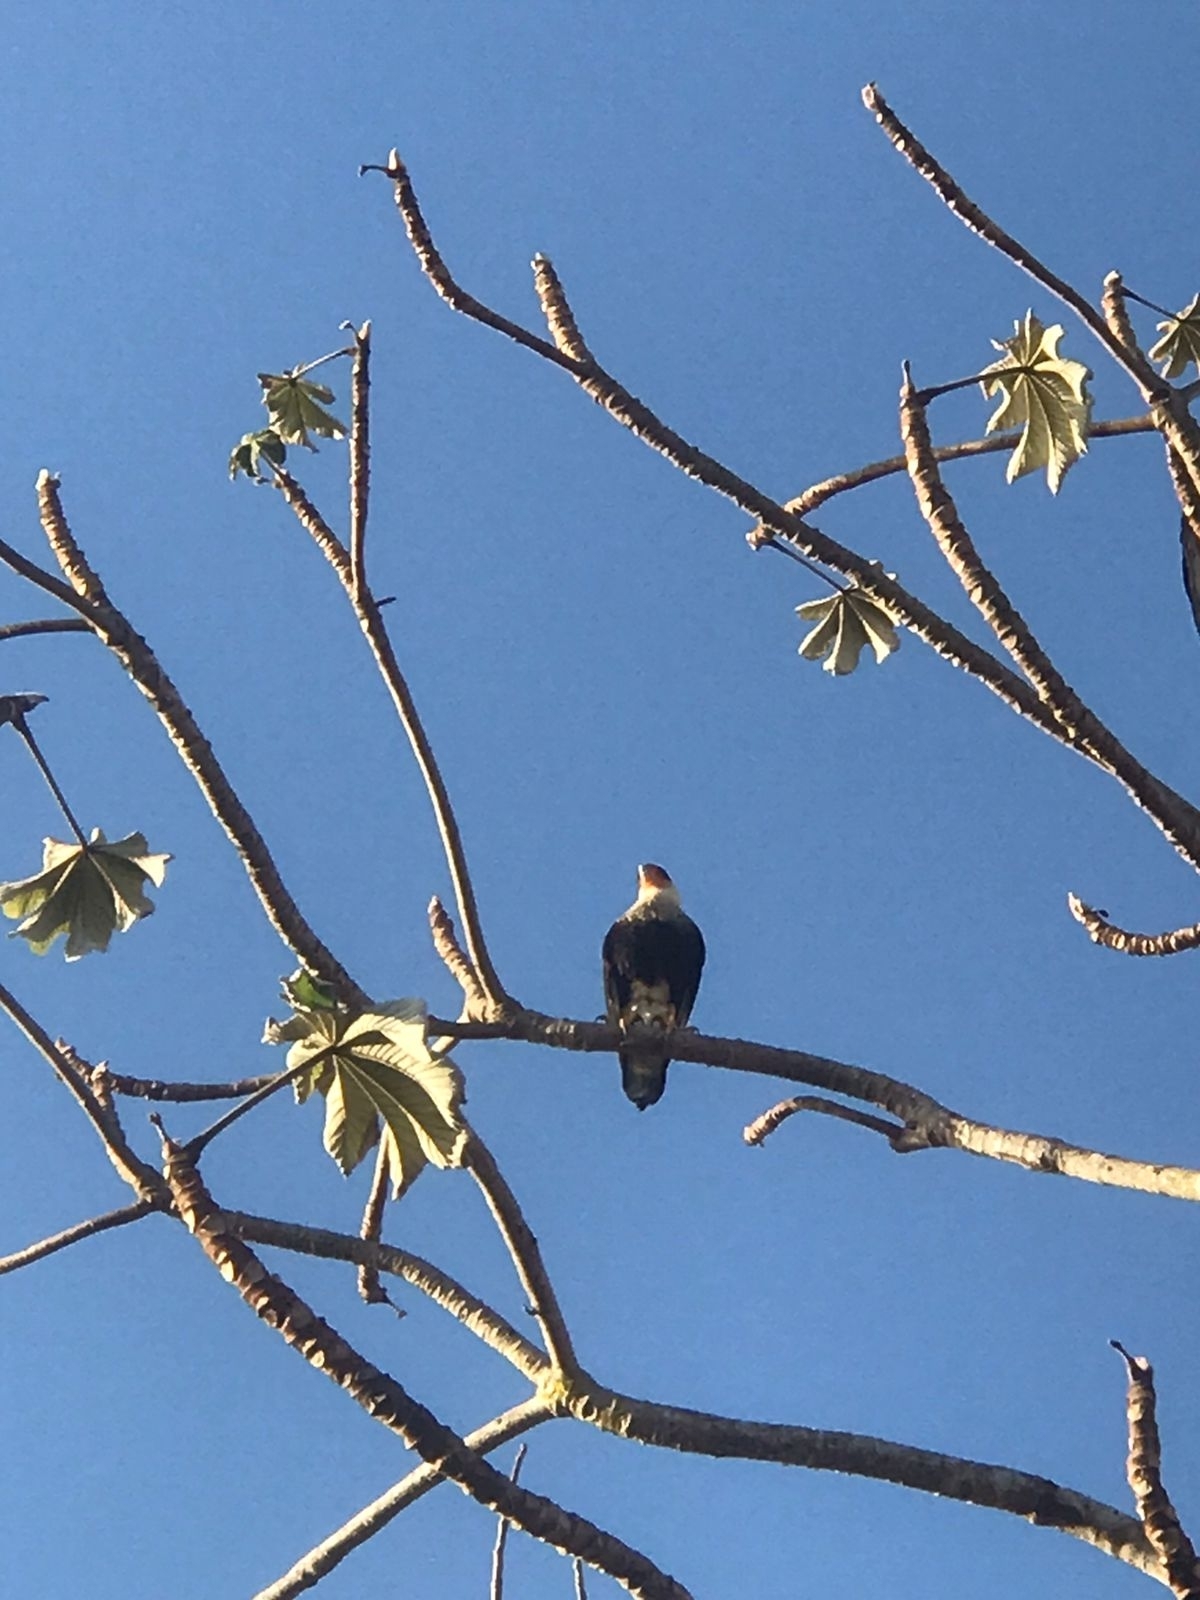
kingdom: Animalia
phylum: Chordata
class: Aves
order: Falconiformes
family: Falconidae
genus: Caracara
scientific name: Caracara plancus
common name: Southern caracara
